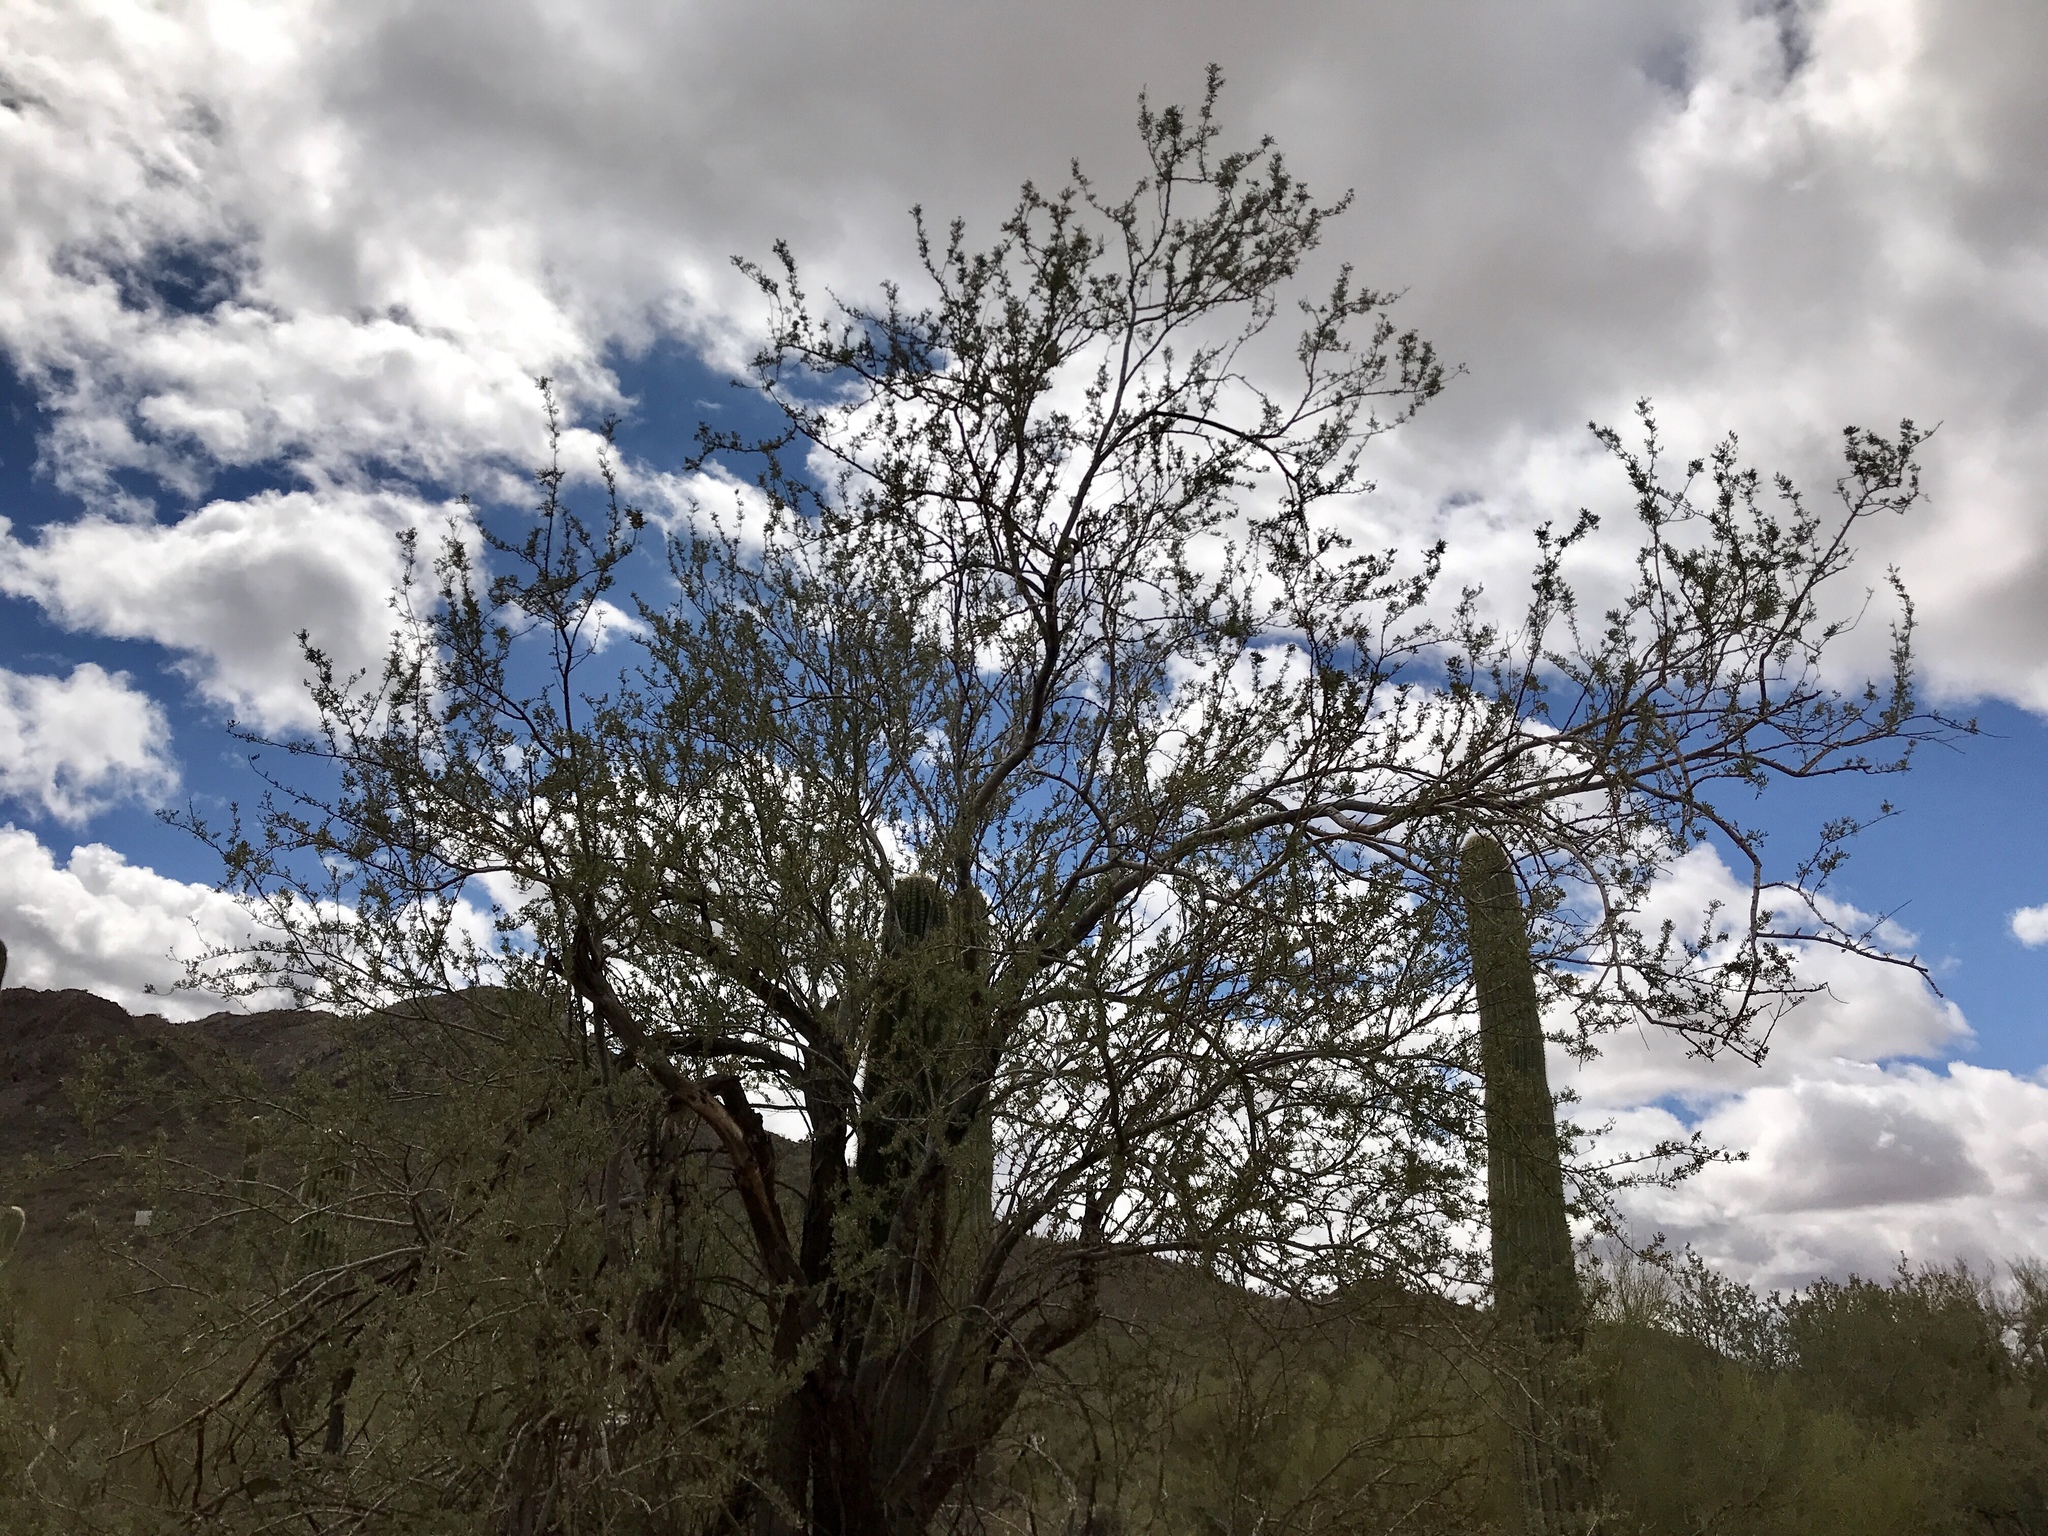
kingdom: Plantae
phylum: Tracheophyta
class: Magnoliopsida
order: Fabales
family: Fabaceae
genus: Olneya
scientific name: Olneya tesota
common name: Desert ironwood
